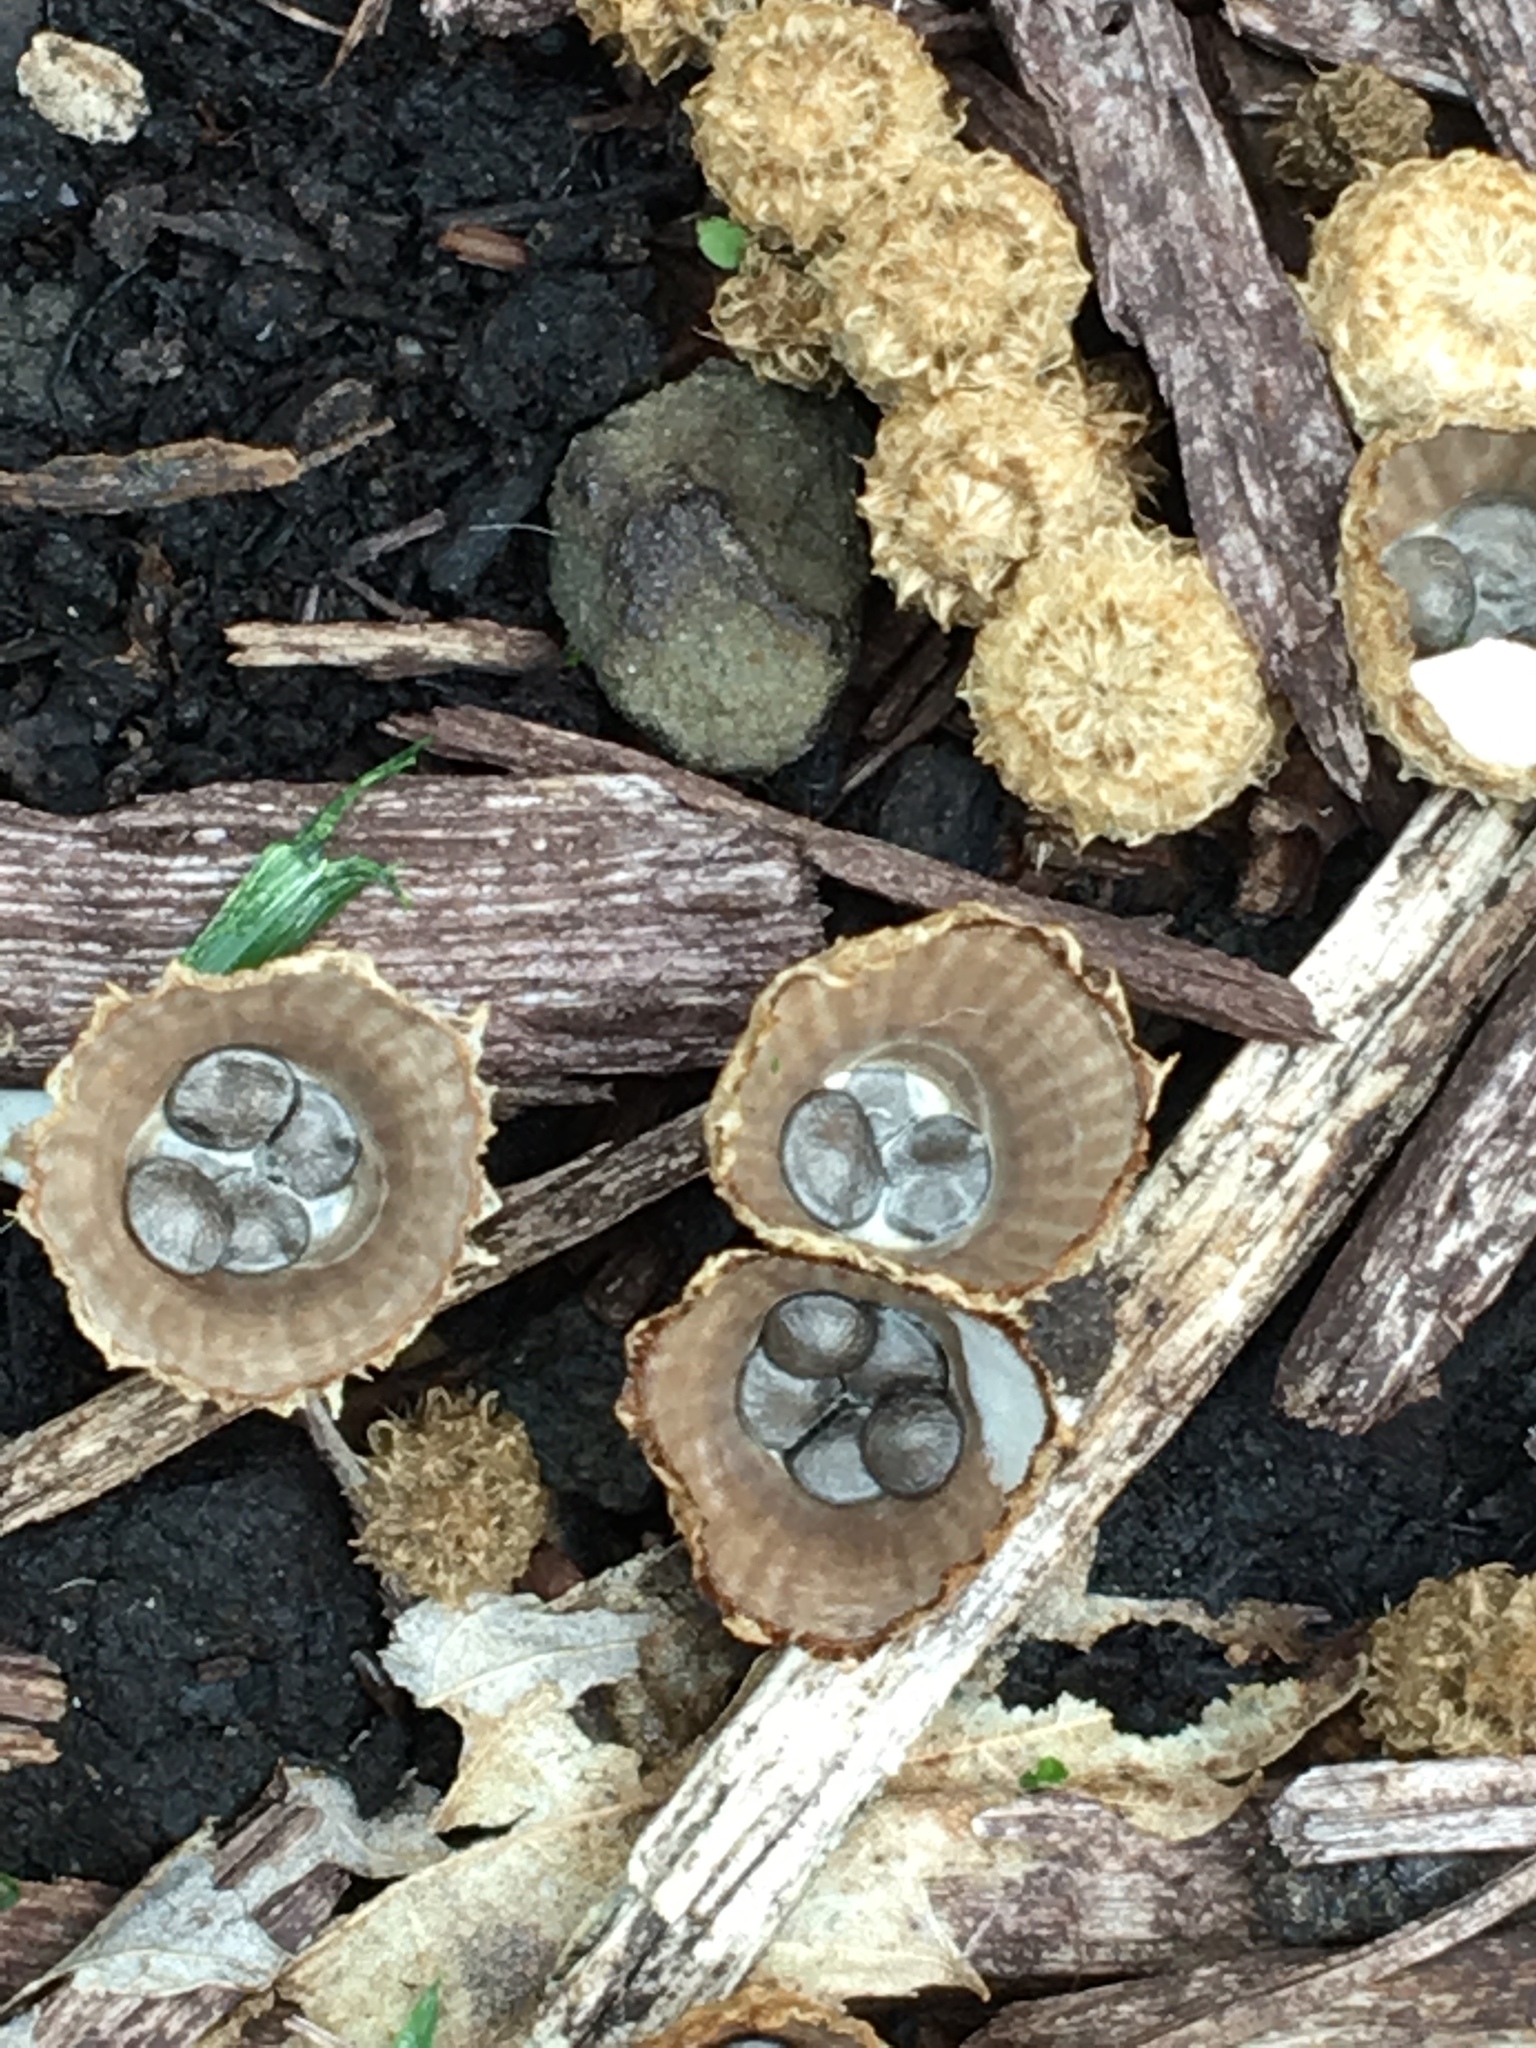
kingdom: Fungi
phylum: Basidiomycota
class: Agaricomycetes
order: Agaricales
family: Agaricaceae
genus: Cyathus
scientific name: Cyathus striatus
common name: Fluted bird's nest
